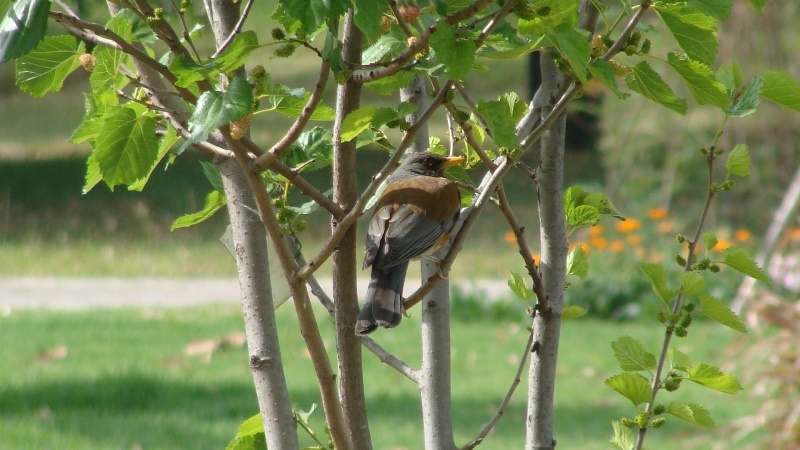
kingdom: Animalia
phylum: Chordata
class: Aves
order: Passeriformes
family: Turdidae
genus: Turdus
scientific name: Turdus rufopalliatus
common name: Rufous-backed robin
